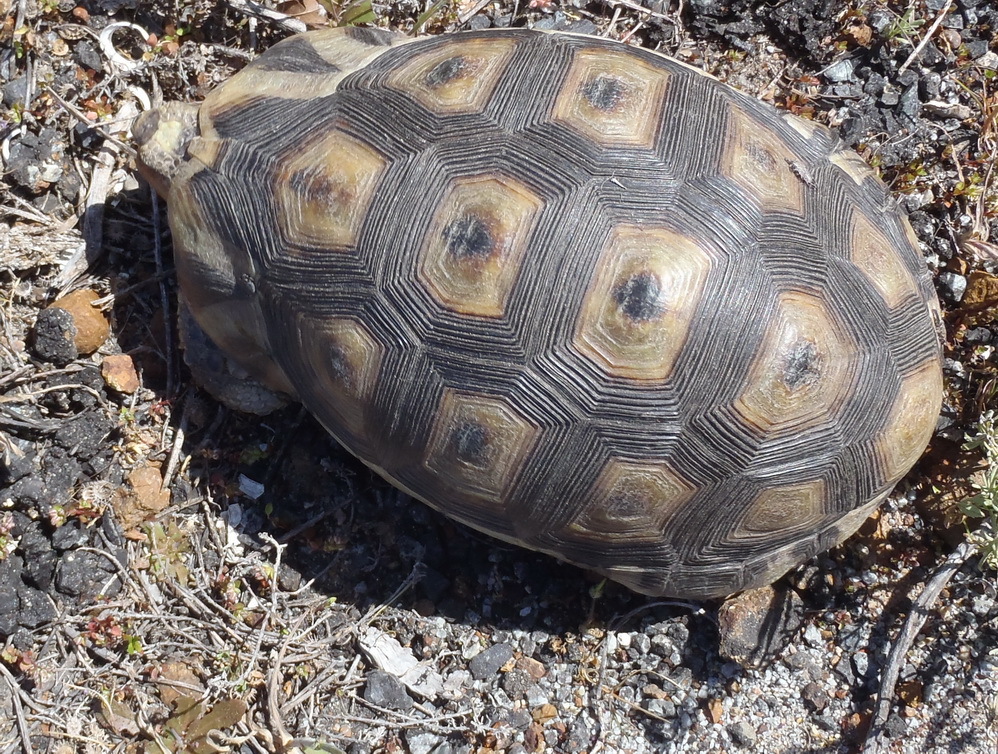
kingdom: Animalia
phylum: Chordata
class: Testudines
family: Testudinidae
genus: Chersina
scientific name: Chersina angulata
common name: South african bowsprit tortoise
